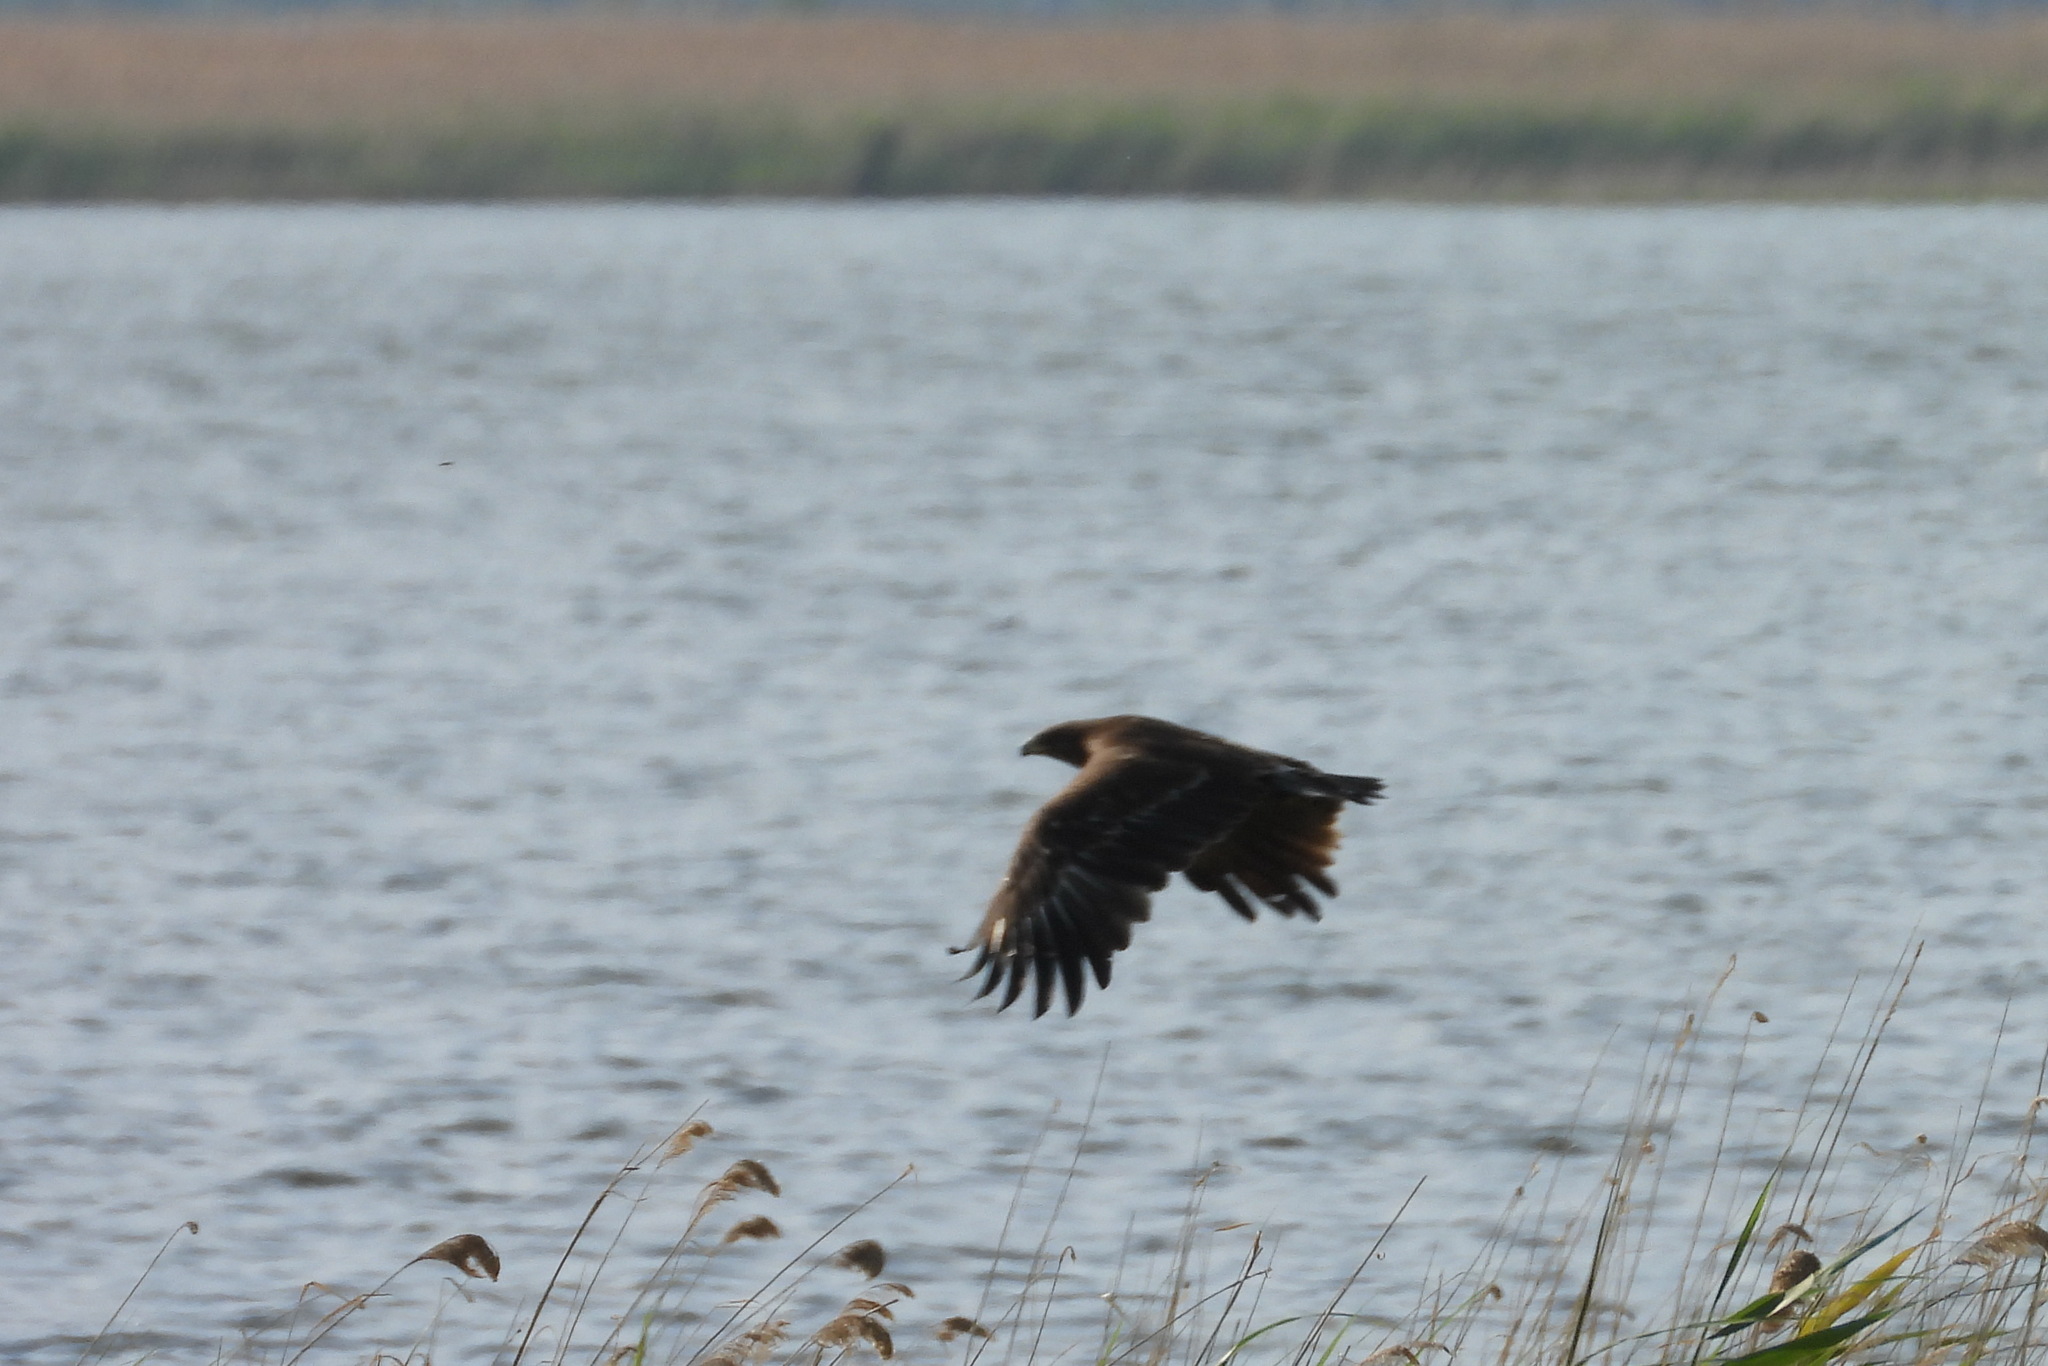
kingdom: Animalia
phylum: Chordata
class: Aves
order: Accipitriformes
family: Accipitridae
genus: Aquila
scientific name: Aquila clanga
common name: Greater spotted eagle
